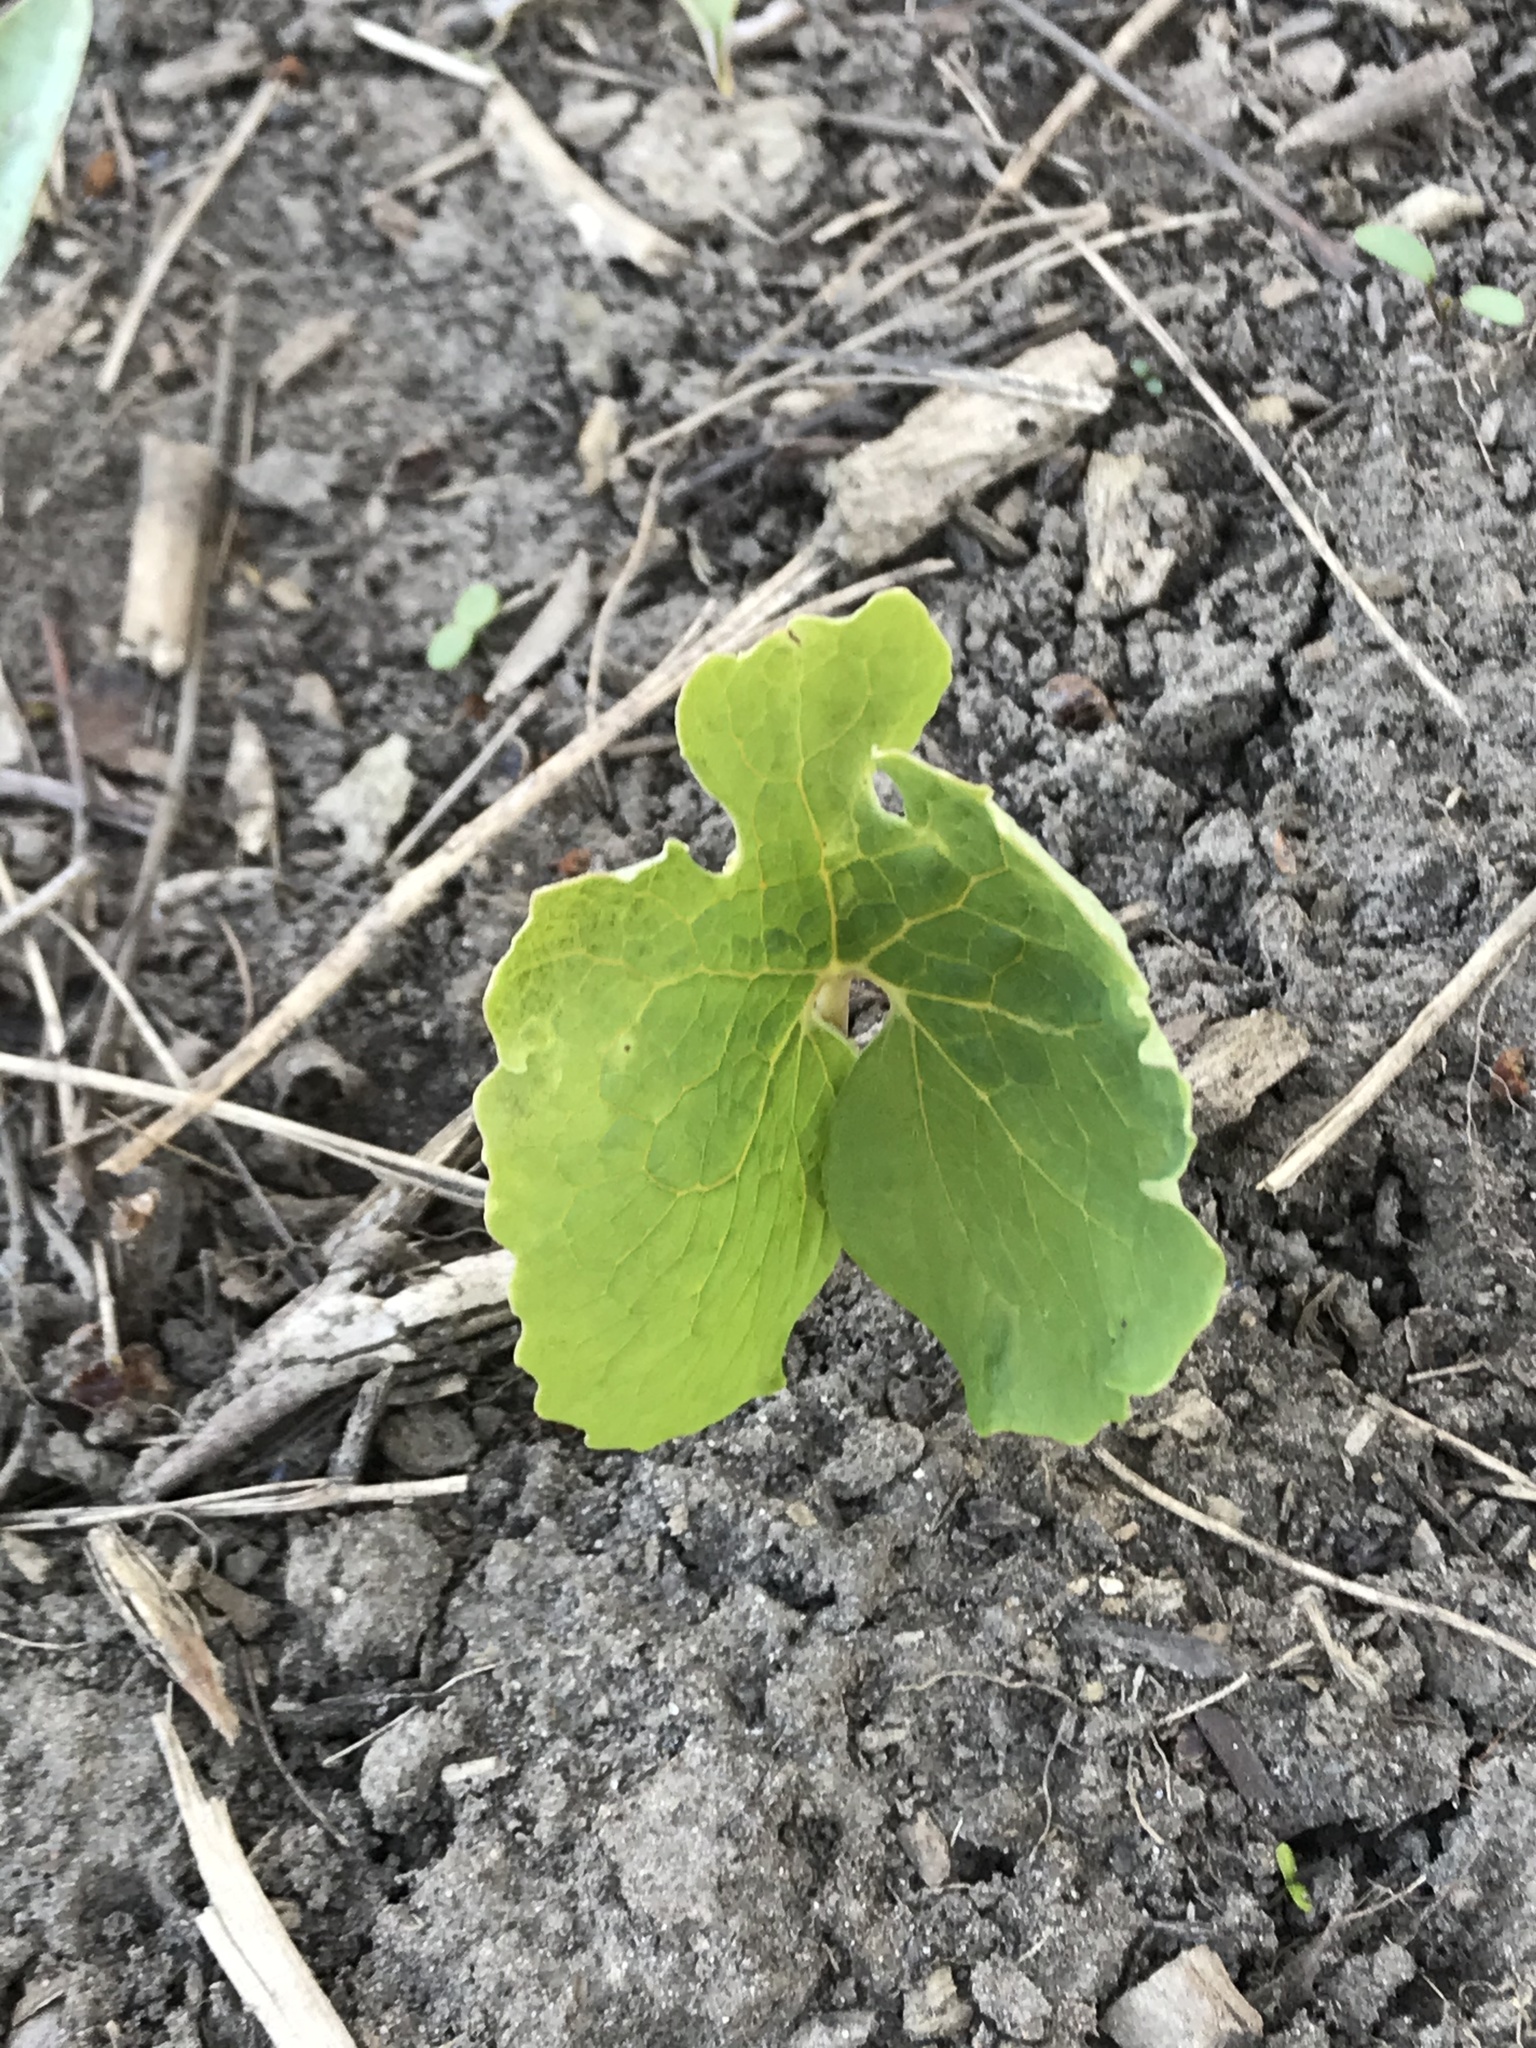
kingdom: Plantae
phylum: Tracheophyta
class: Magnoliopsida
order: Ranunculales
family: Papaveraceae
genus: Sanguinaria
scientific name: Sanguinaria canadensis
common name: Bloodroot
